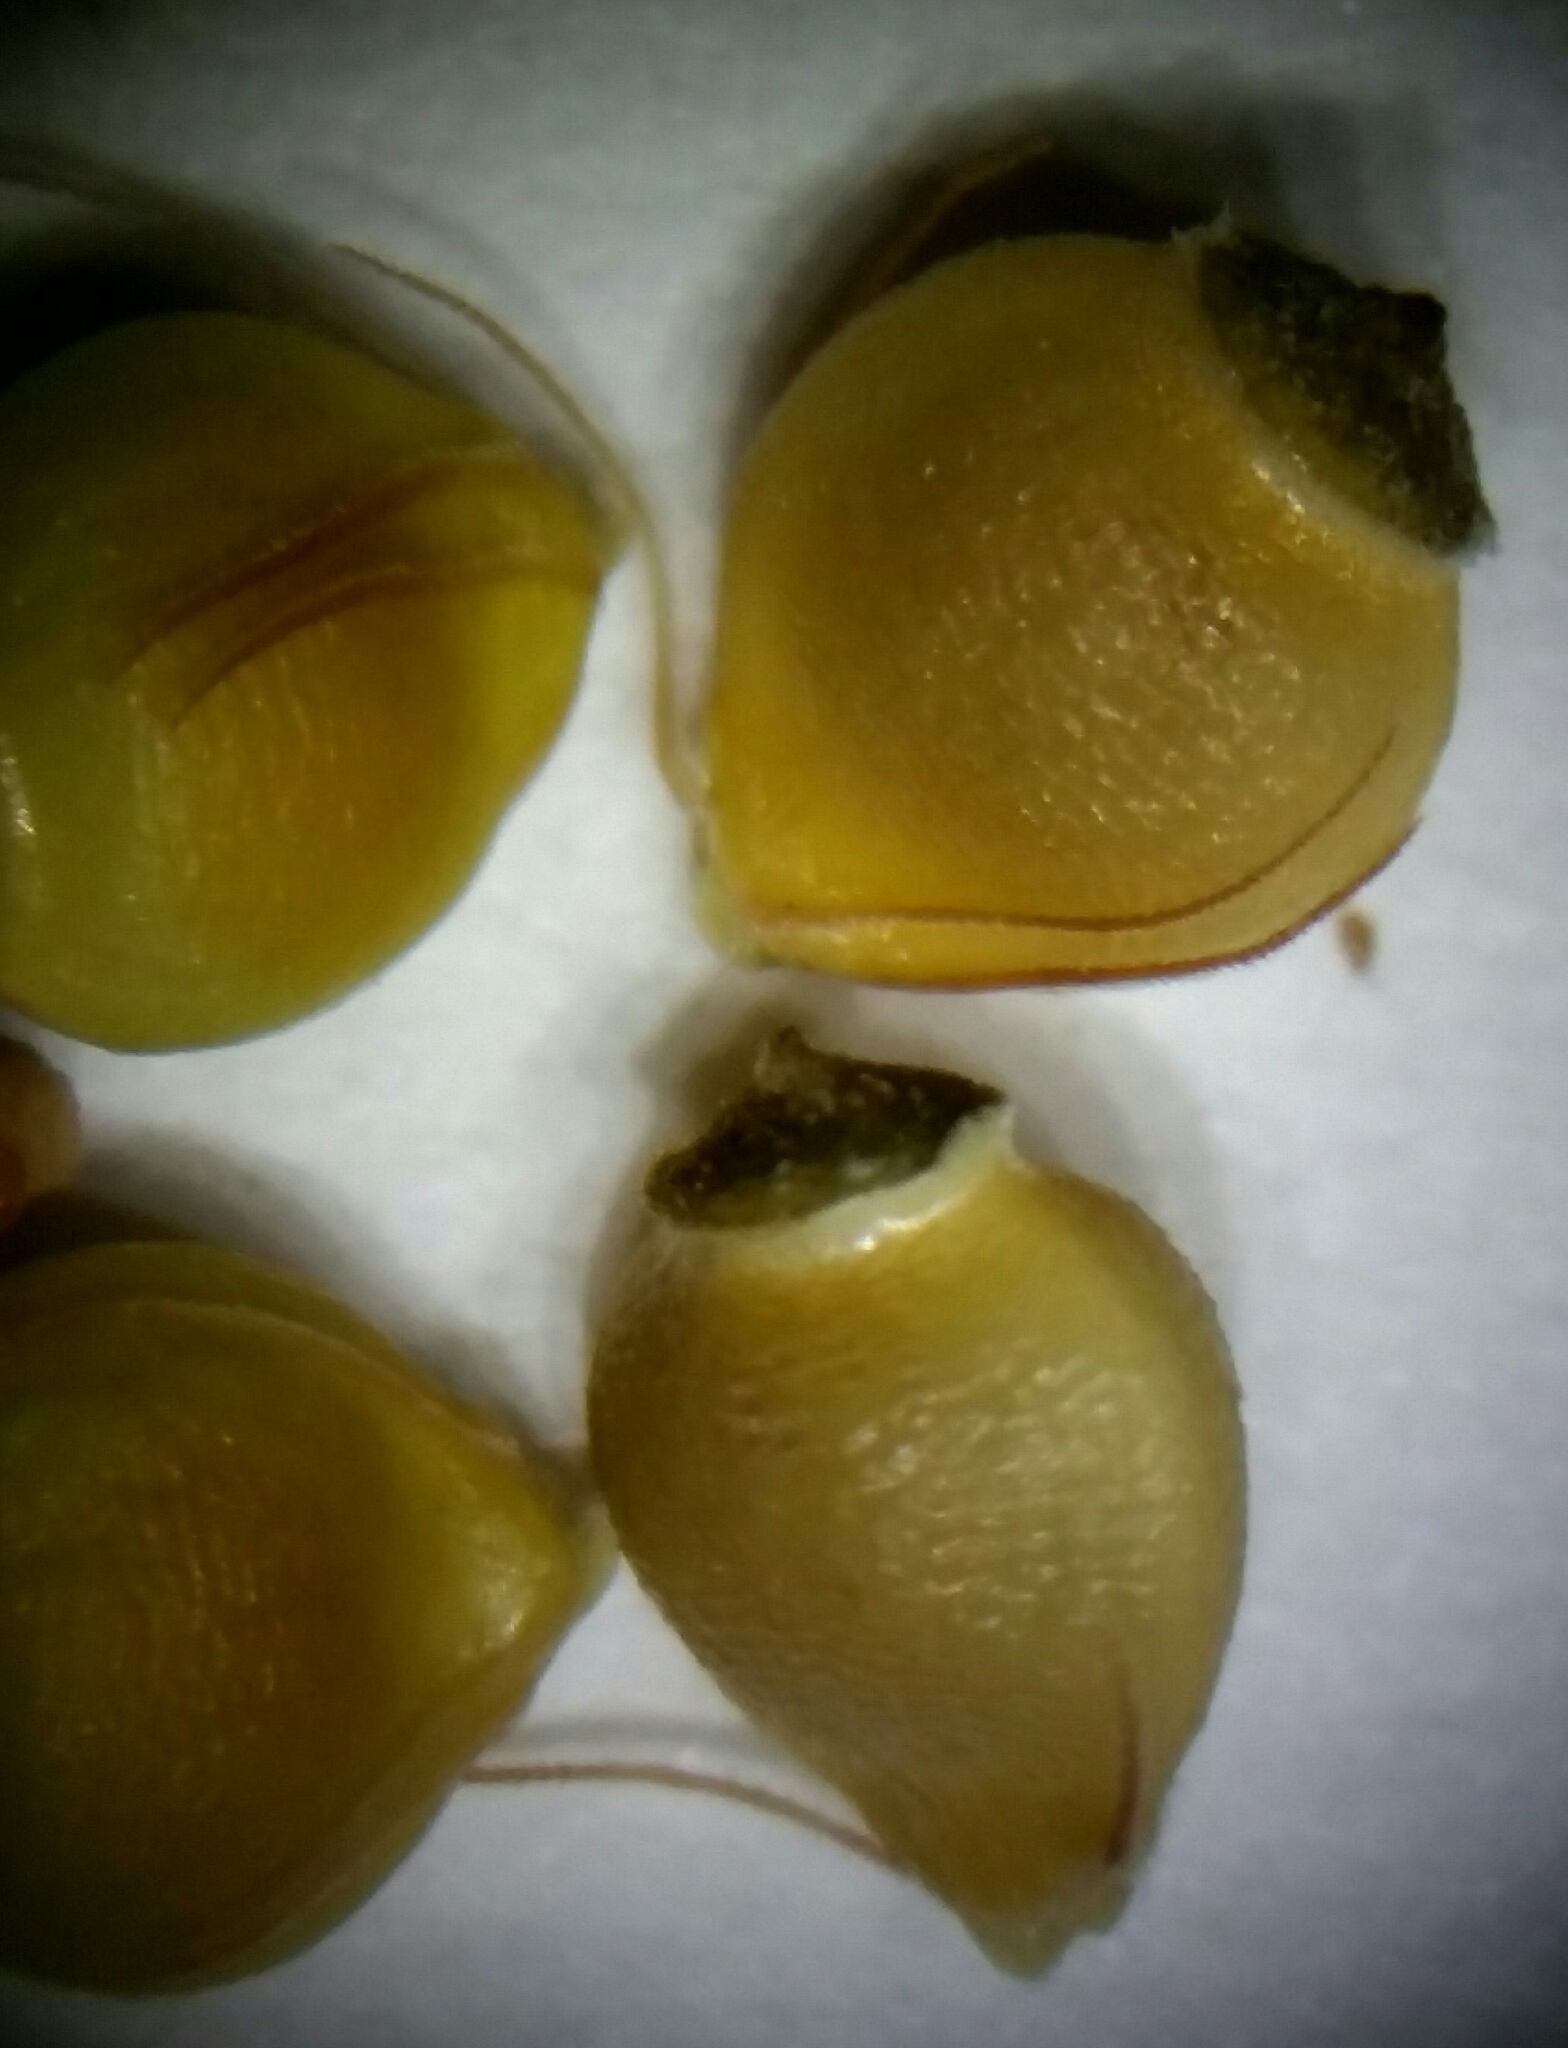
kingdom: Plantae
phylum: Tracheophyta
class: Liliopsida
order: Poales
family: Cyperaceae
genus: Rhynchospora
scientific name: Rhynchospora grayi
